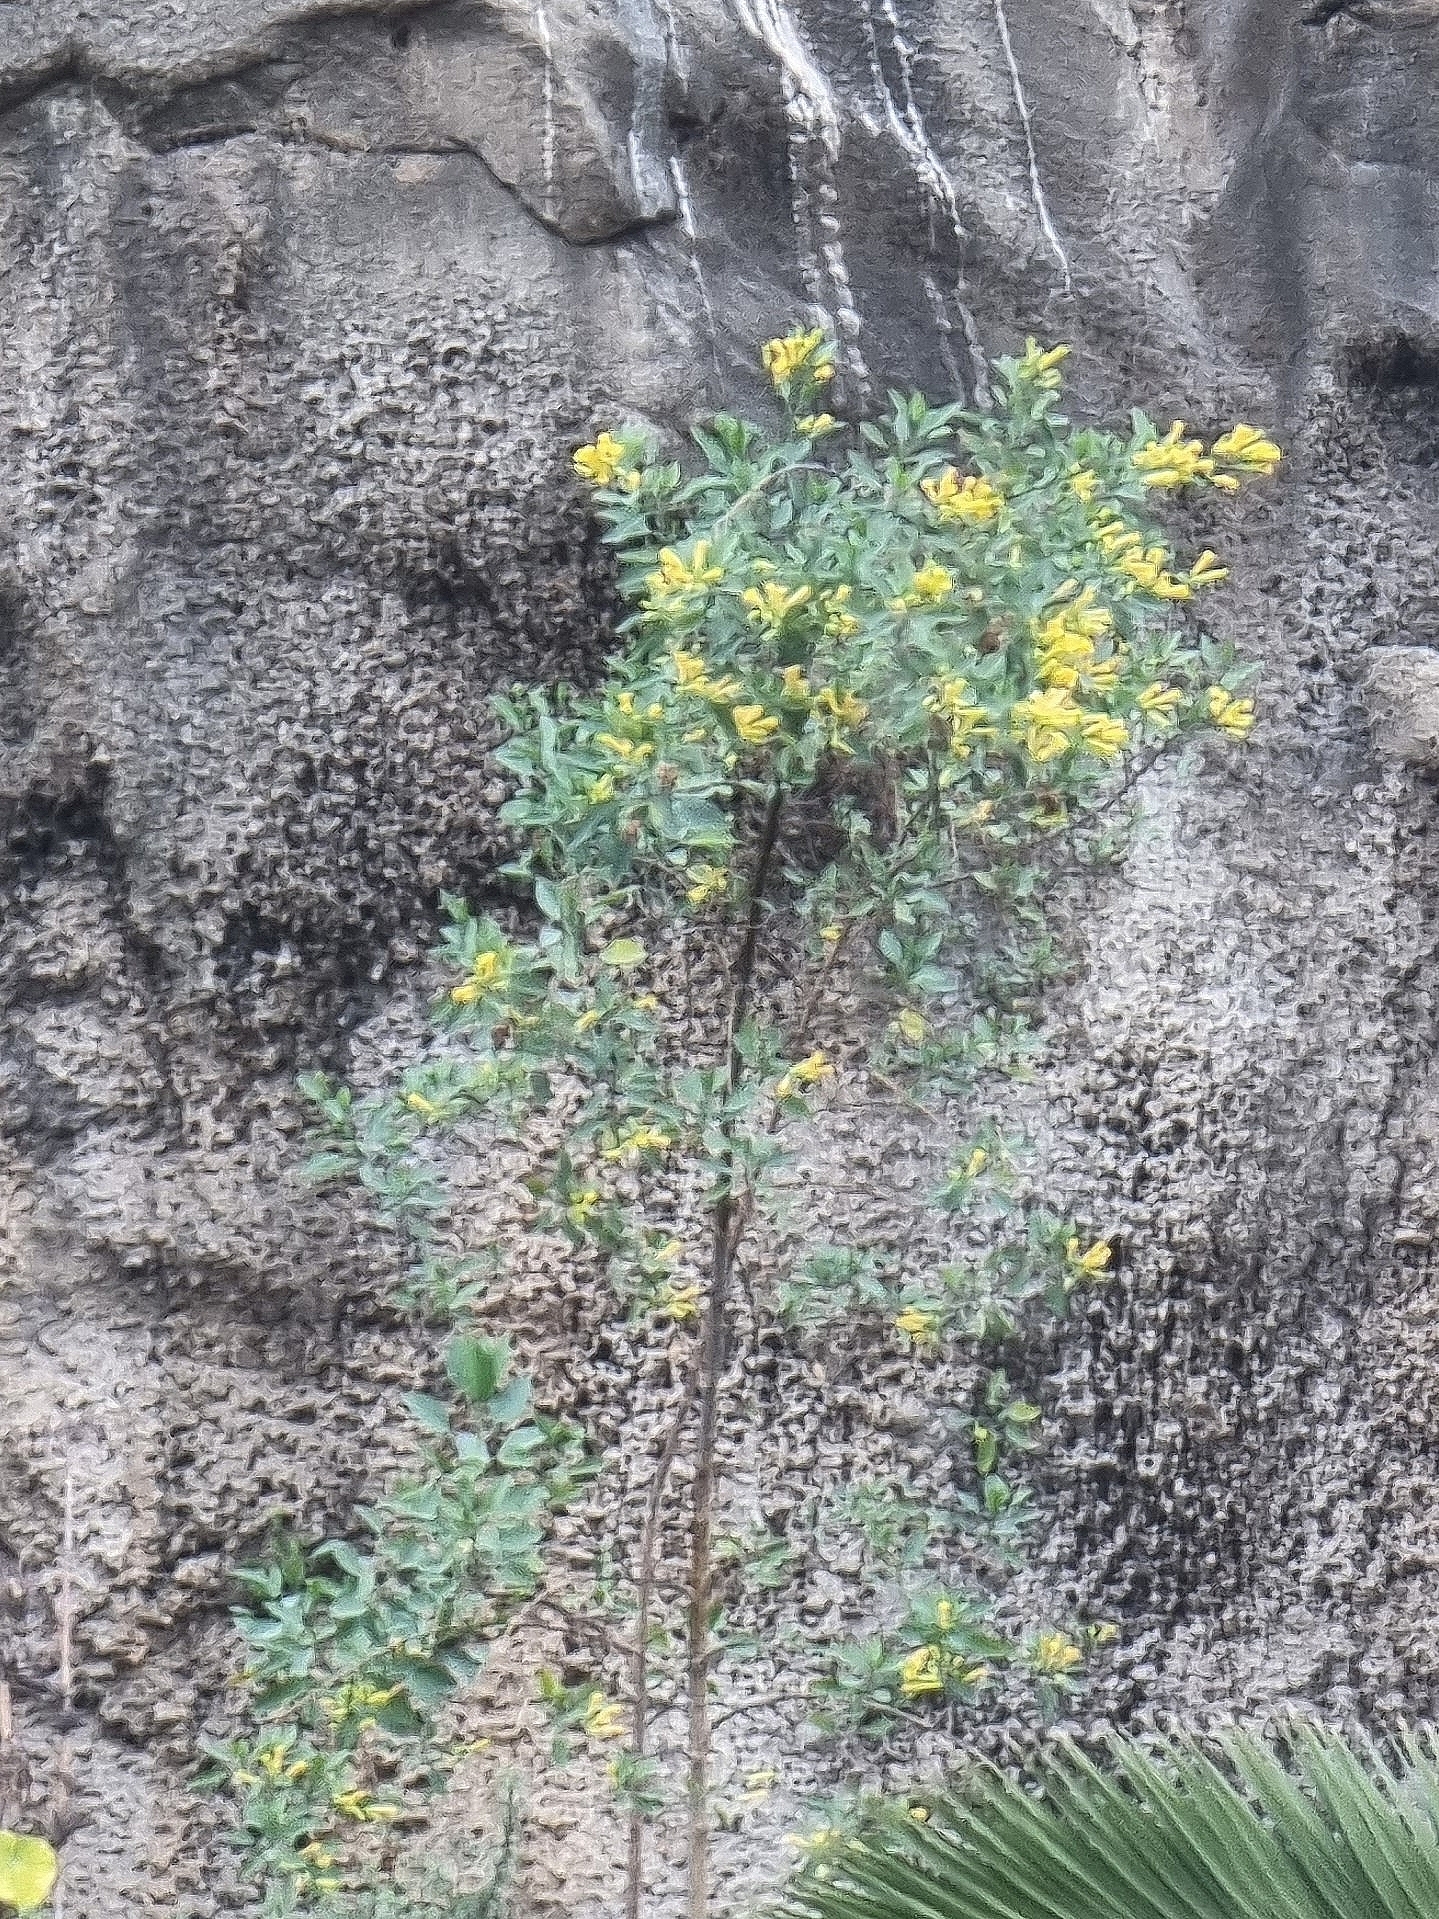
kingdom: Plantae
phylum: Tracheophyta
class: Magnoliopsida
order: Solanales
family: Solanaceae
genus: Nicotiana
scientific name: Nicotiana glauca
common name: Tree tobacco
